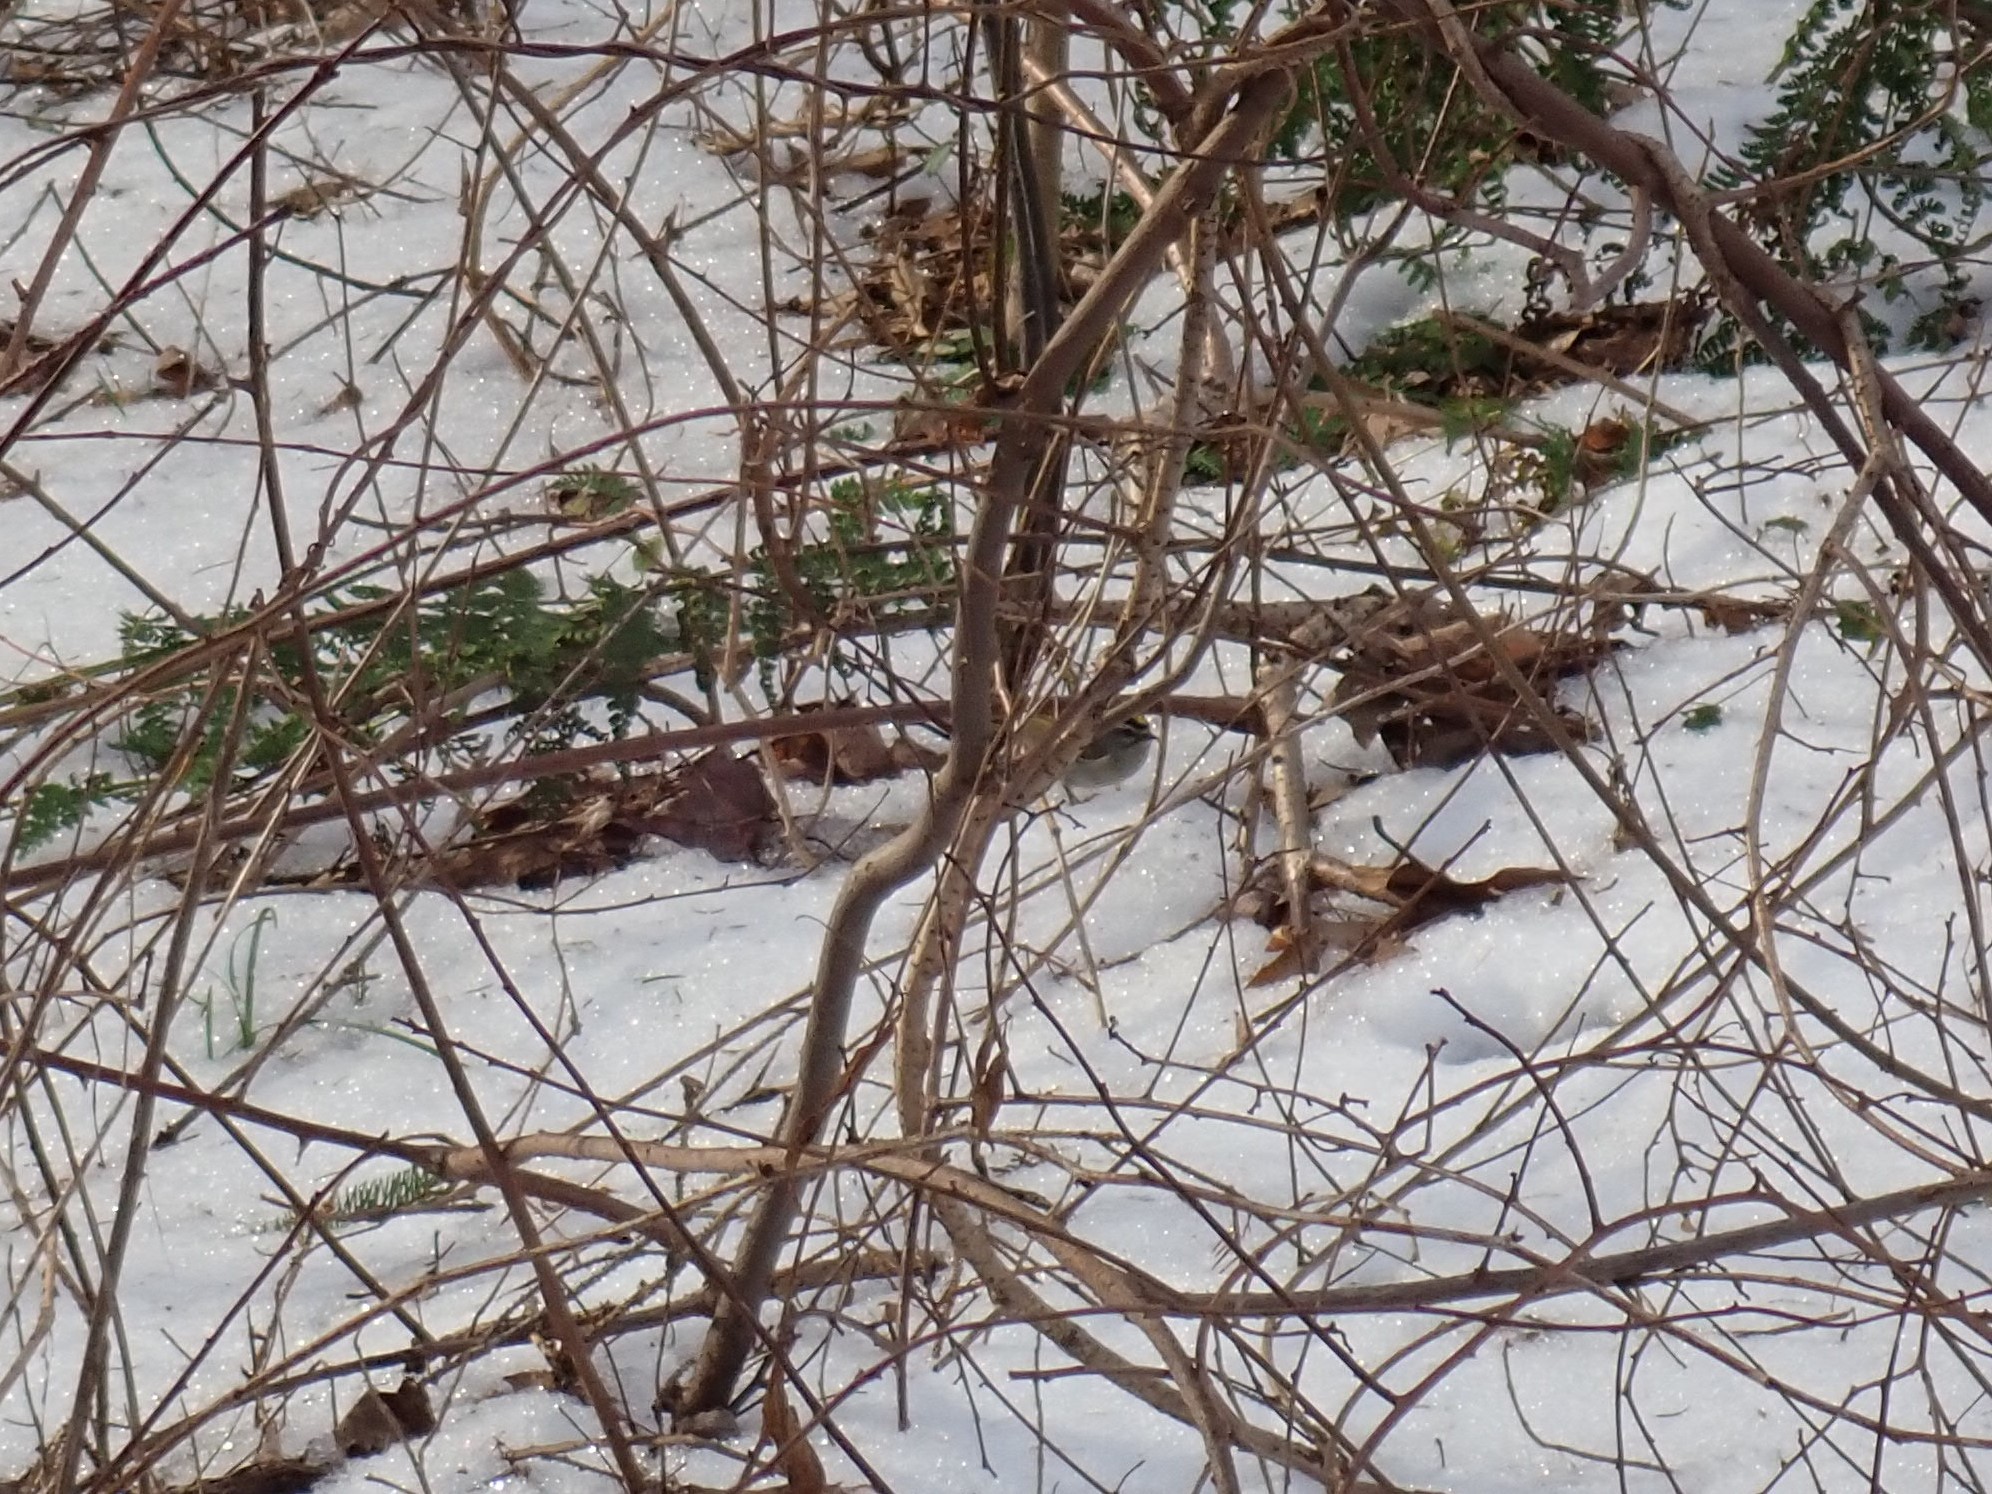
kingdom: Animalia
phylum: Chordata
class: Aves
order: Passeriformes
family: Regulidae
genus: Regulus
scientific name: Regulus satrapa
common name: Golden-crowned kinglet
